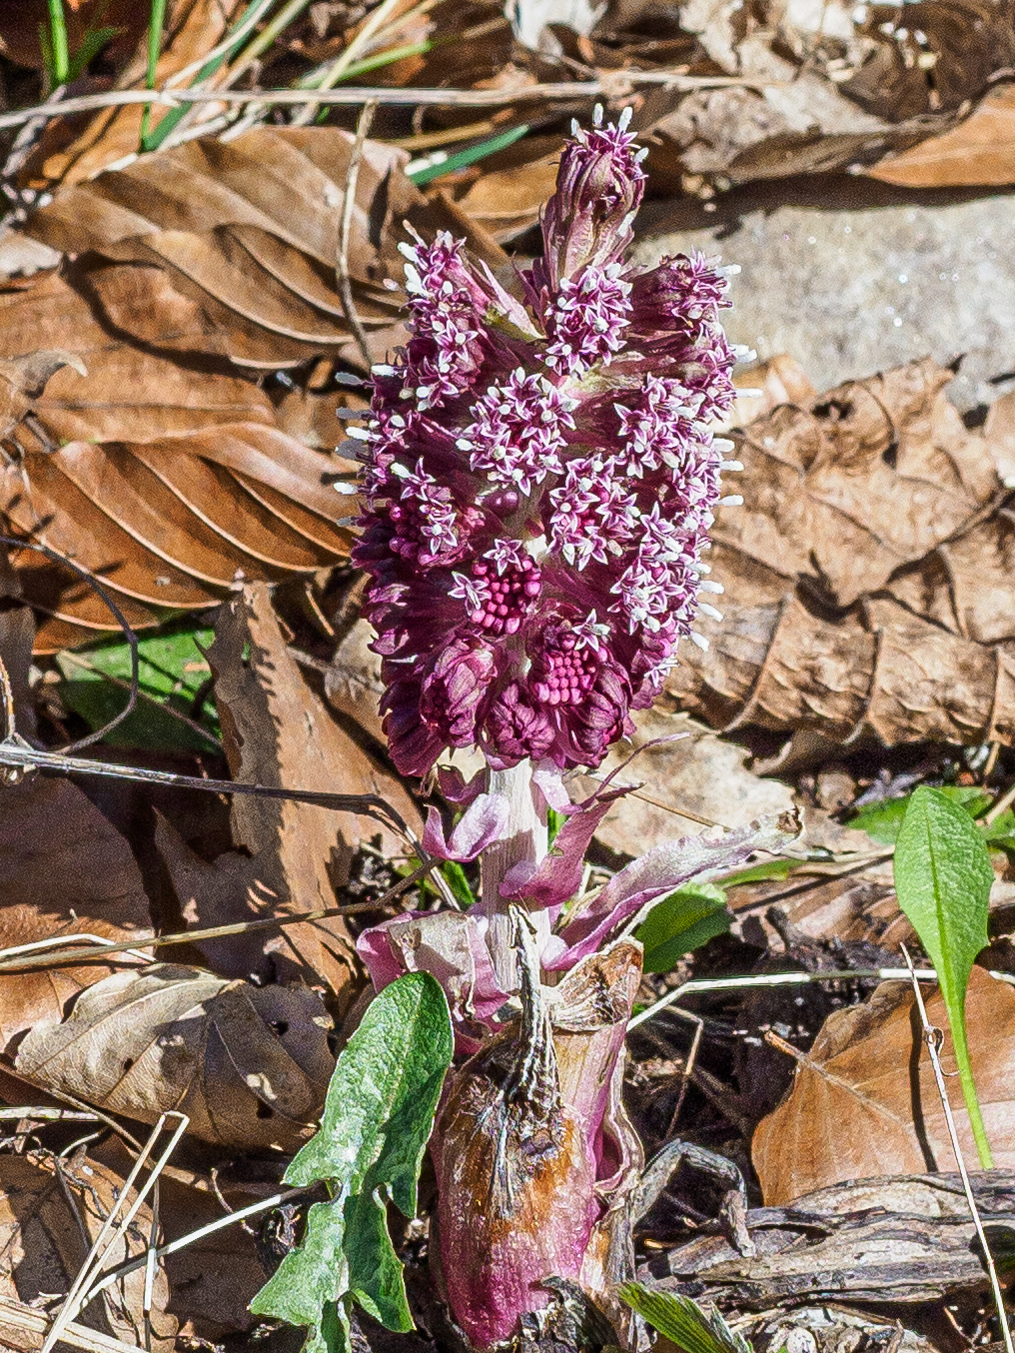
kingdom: Plantae
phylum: Tracheophyta
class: Magnoliopsida
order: Asterales
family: Asteraceae
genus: Petasites
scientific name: Petasites hybridus
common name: Butterbur
